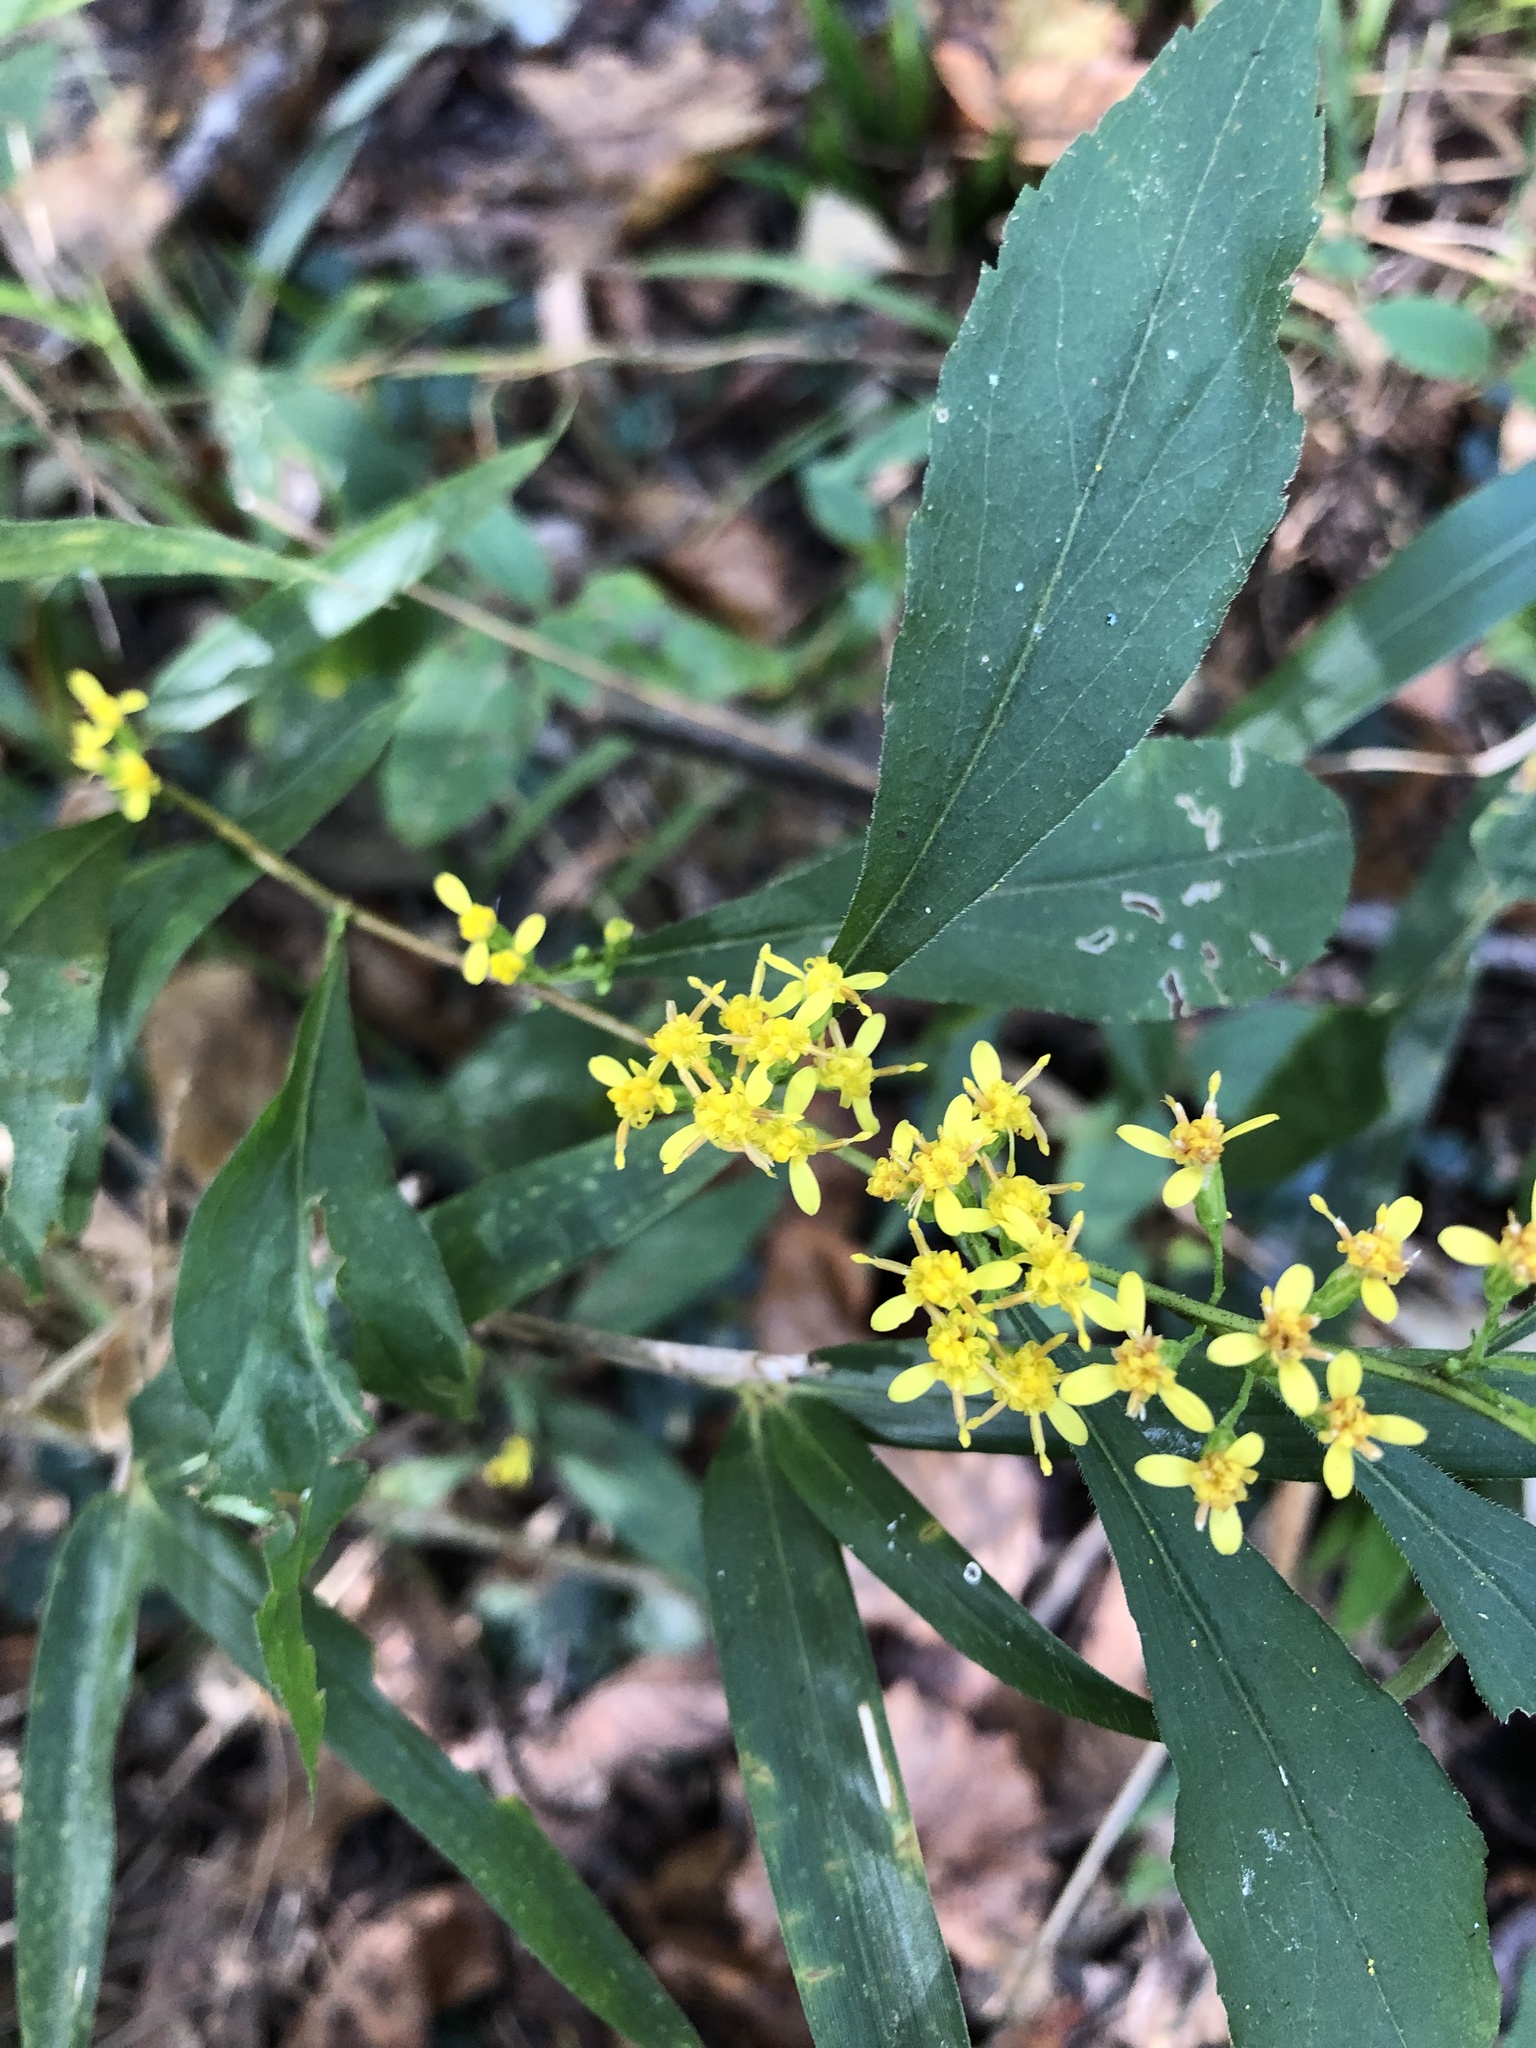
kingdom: Plantae
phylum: Tracheophyta
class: Magnoliopsida
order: Asterales
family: Asteraceae
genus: Solidago
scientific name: Solidago zedia
